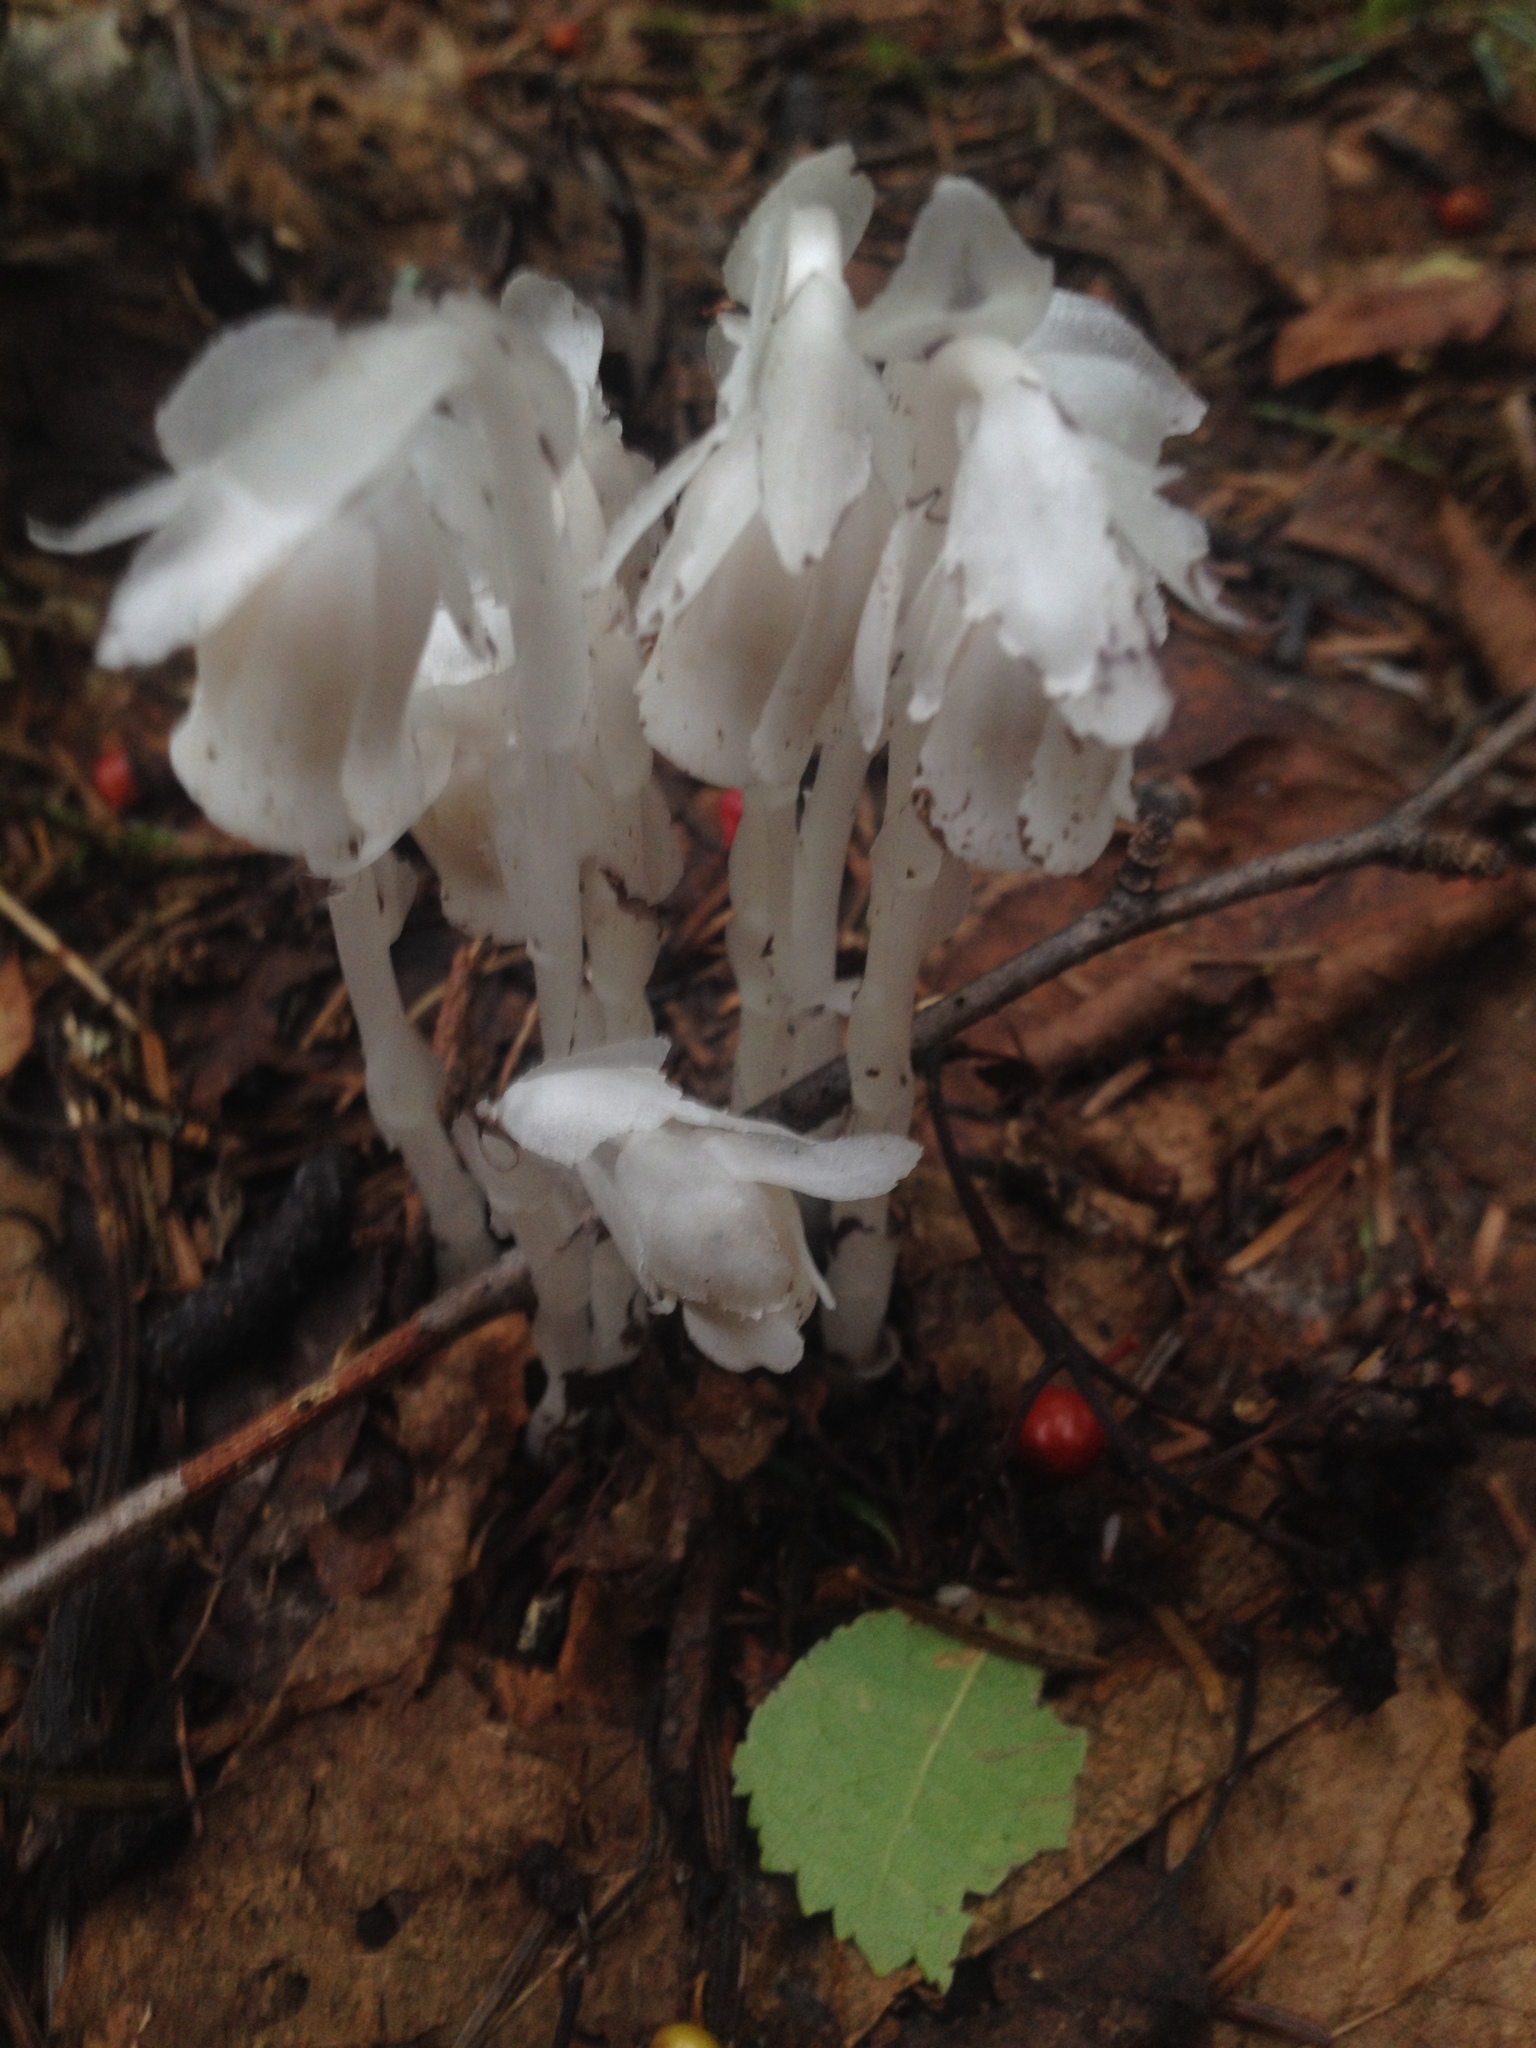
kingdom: Plantae
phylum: Tracheophyta
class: Magnoliopsida
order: Ericales
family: Ericaceae
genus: Monotropa
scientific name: Monotropa uniflora
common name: Convulsion root
